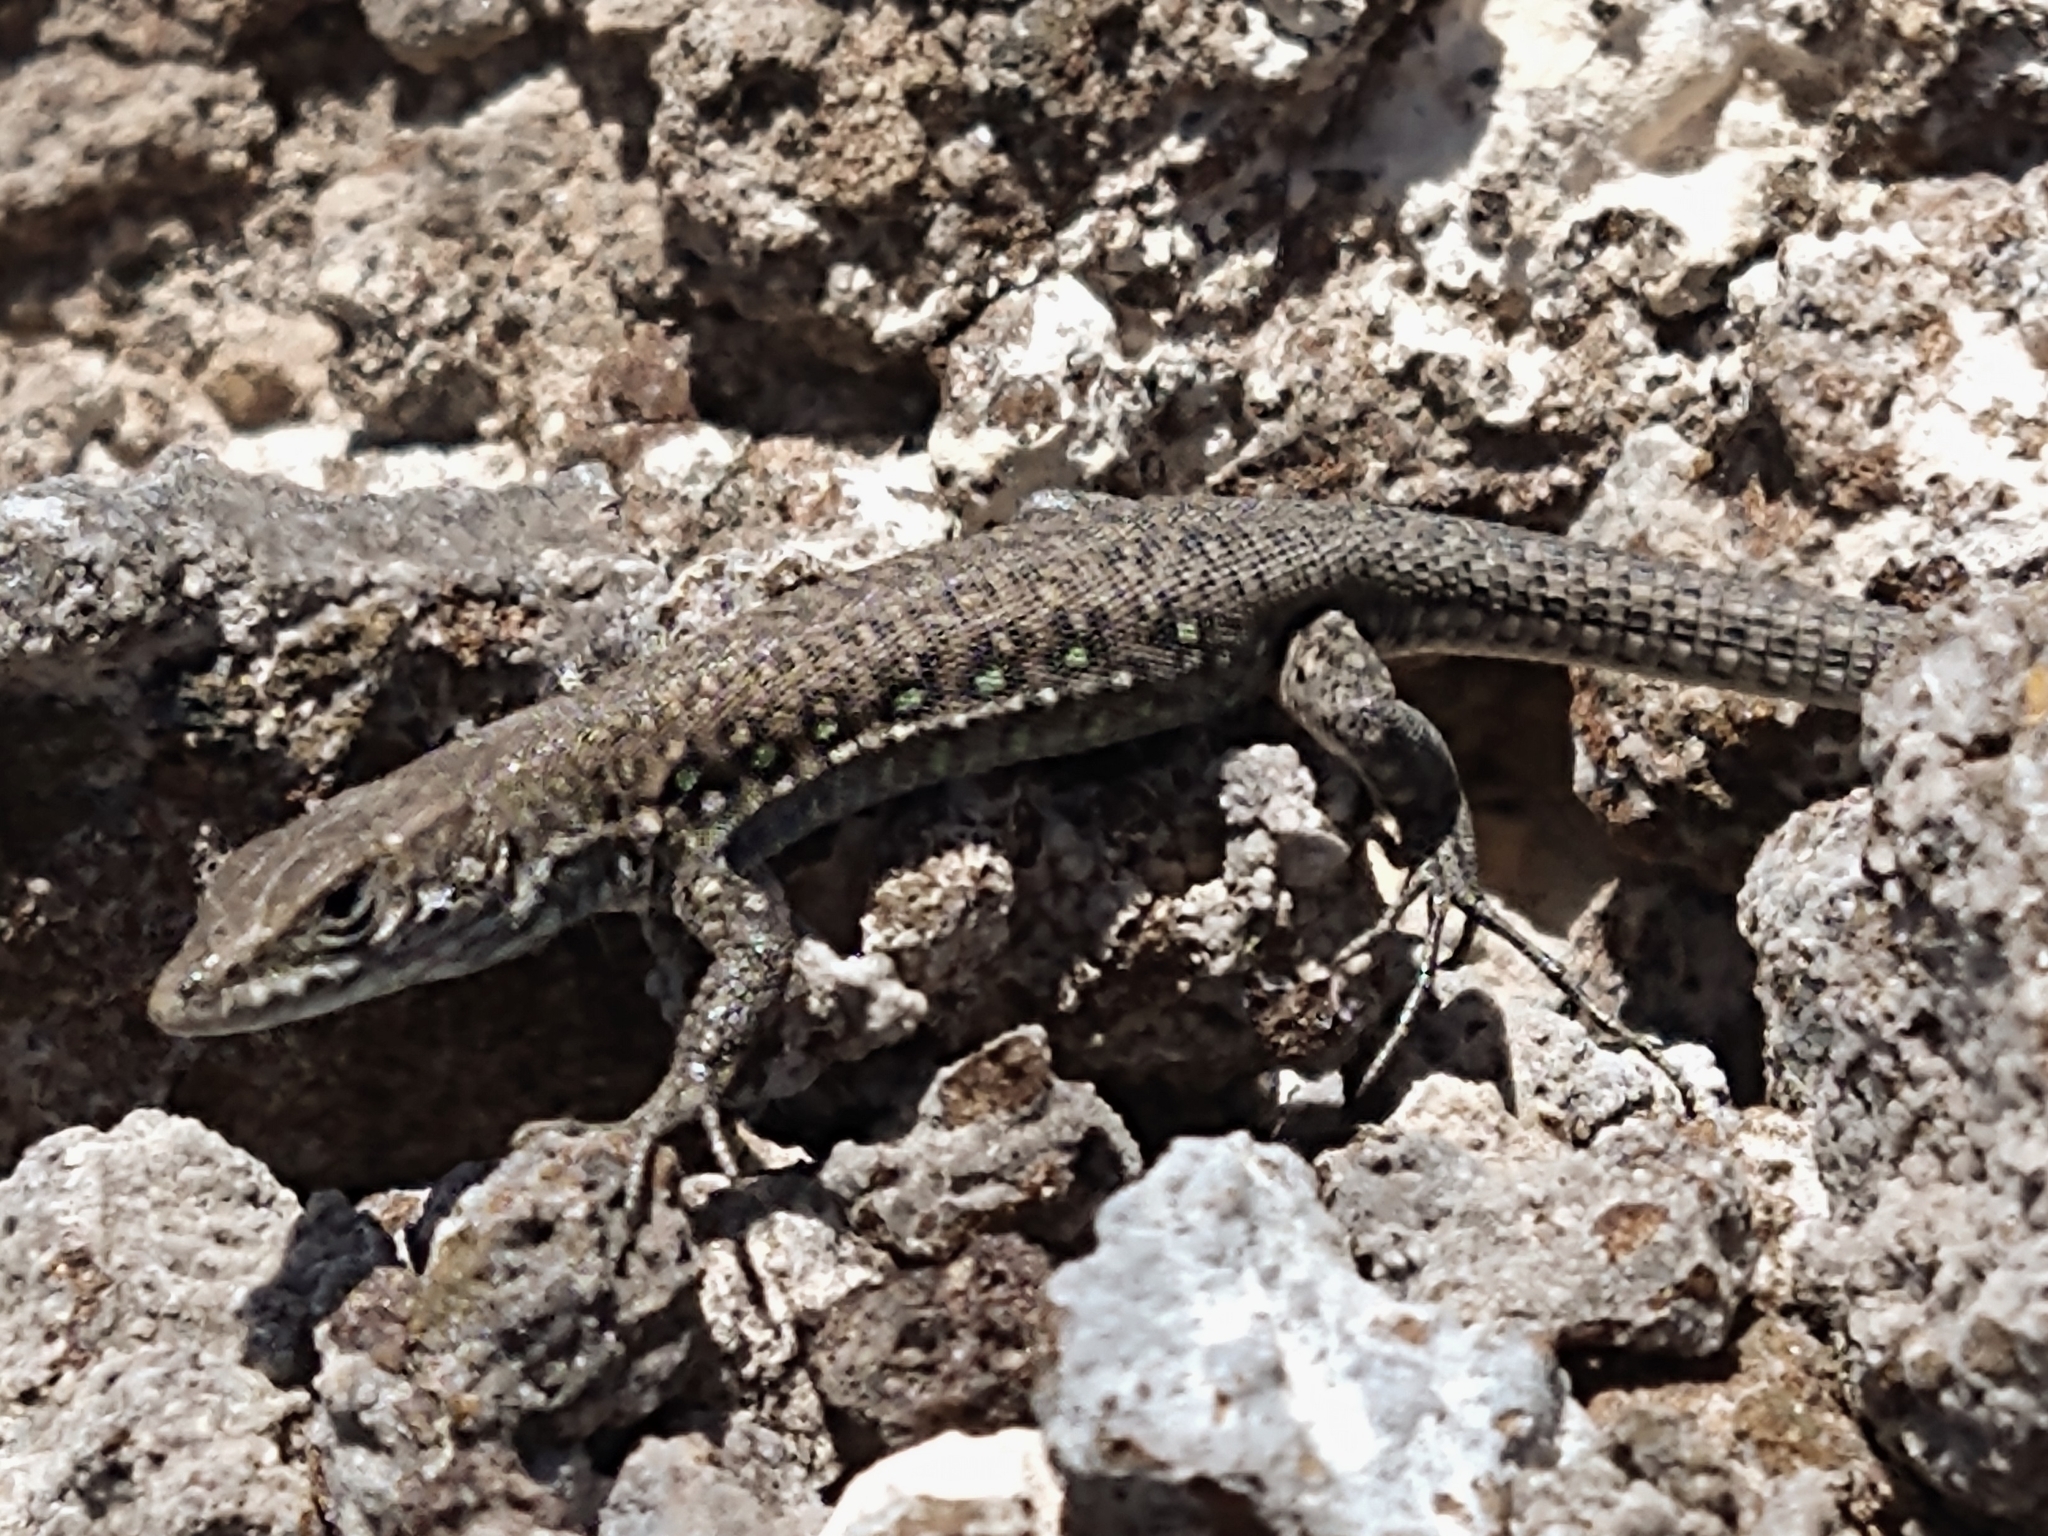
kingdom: Animalia
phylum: Chordata
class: Squamata
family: Lacertidae
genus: Gallotia
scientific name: Gallotia atlantica
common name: Atlantic lizard
